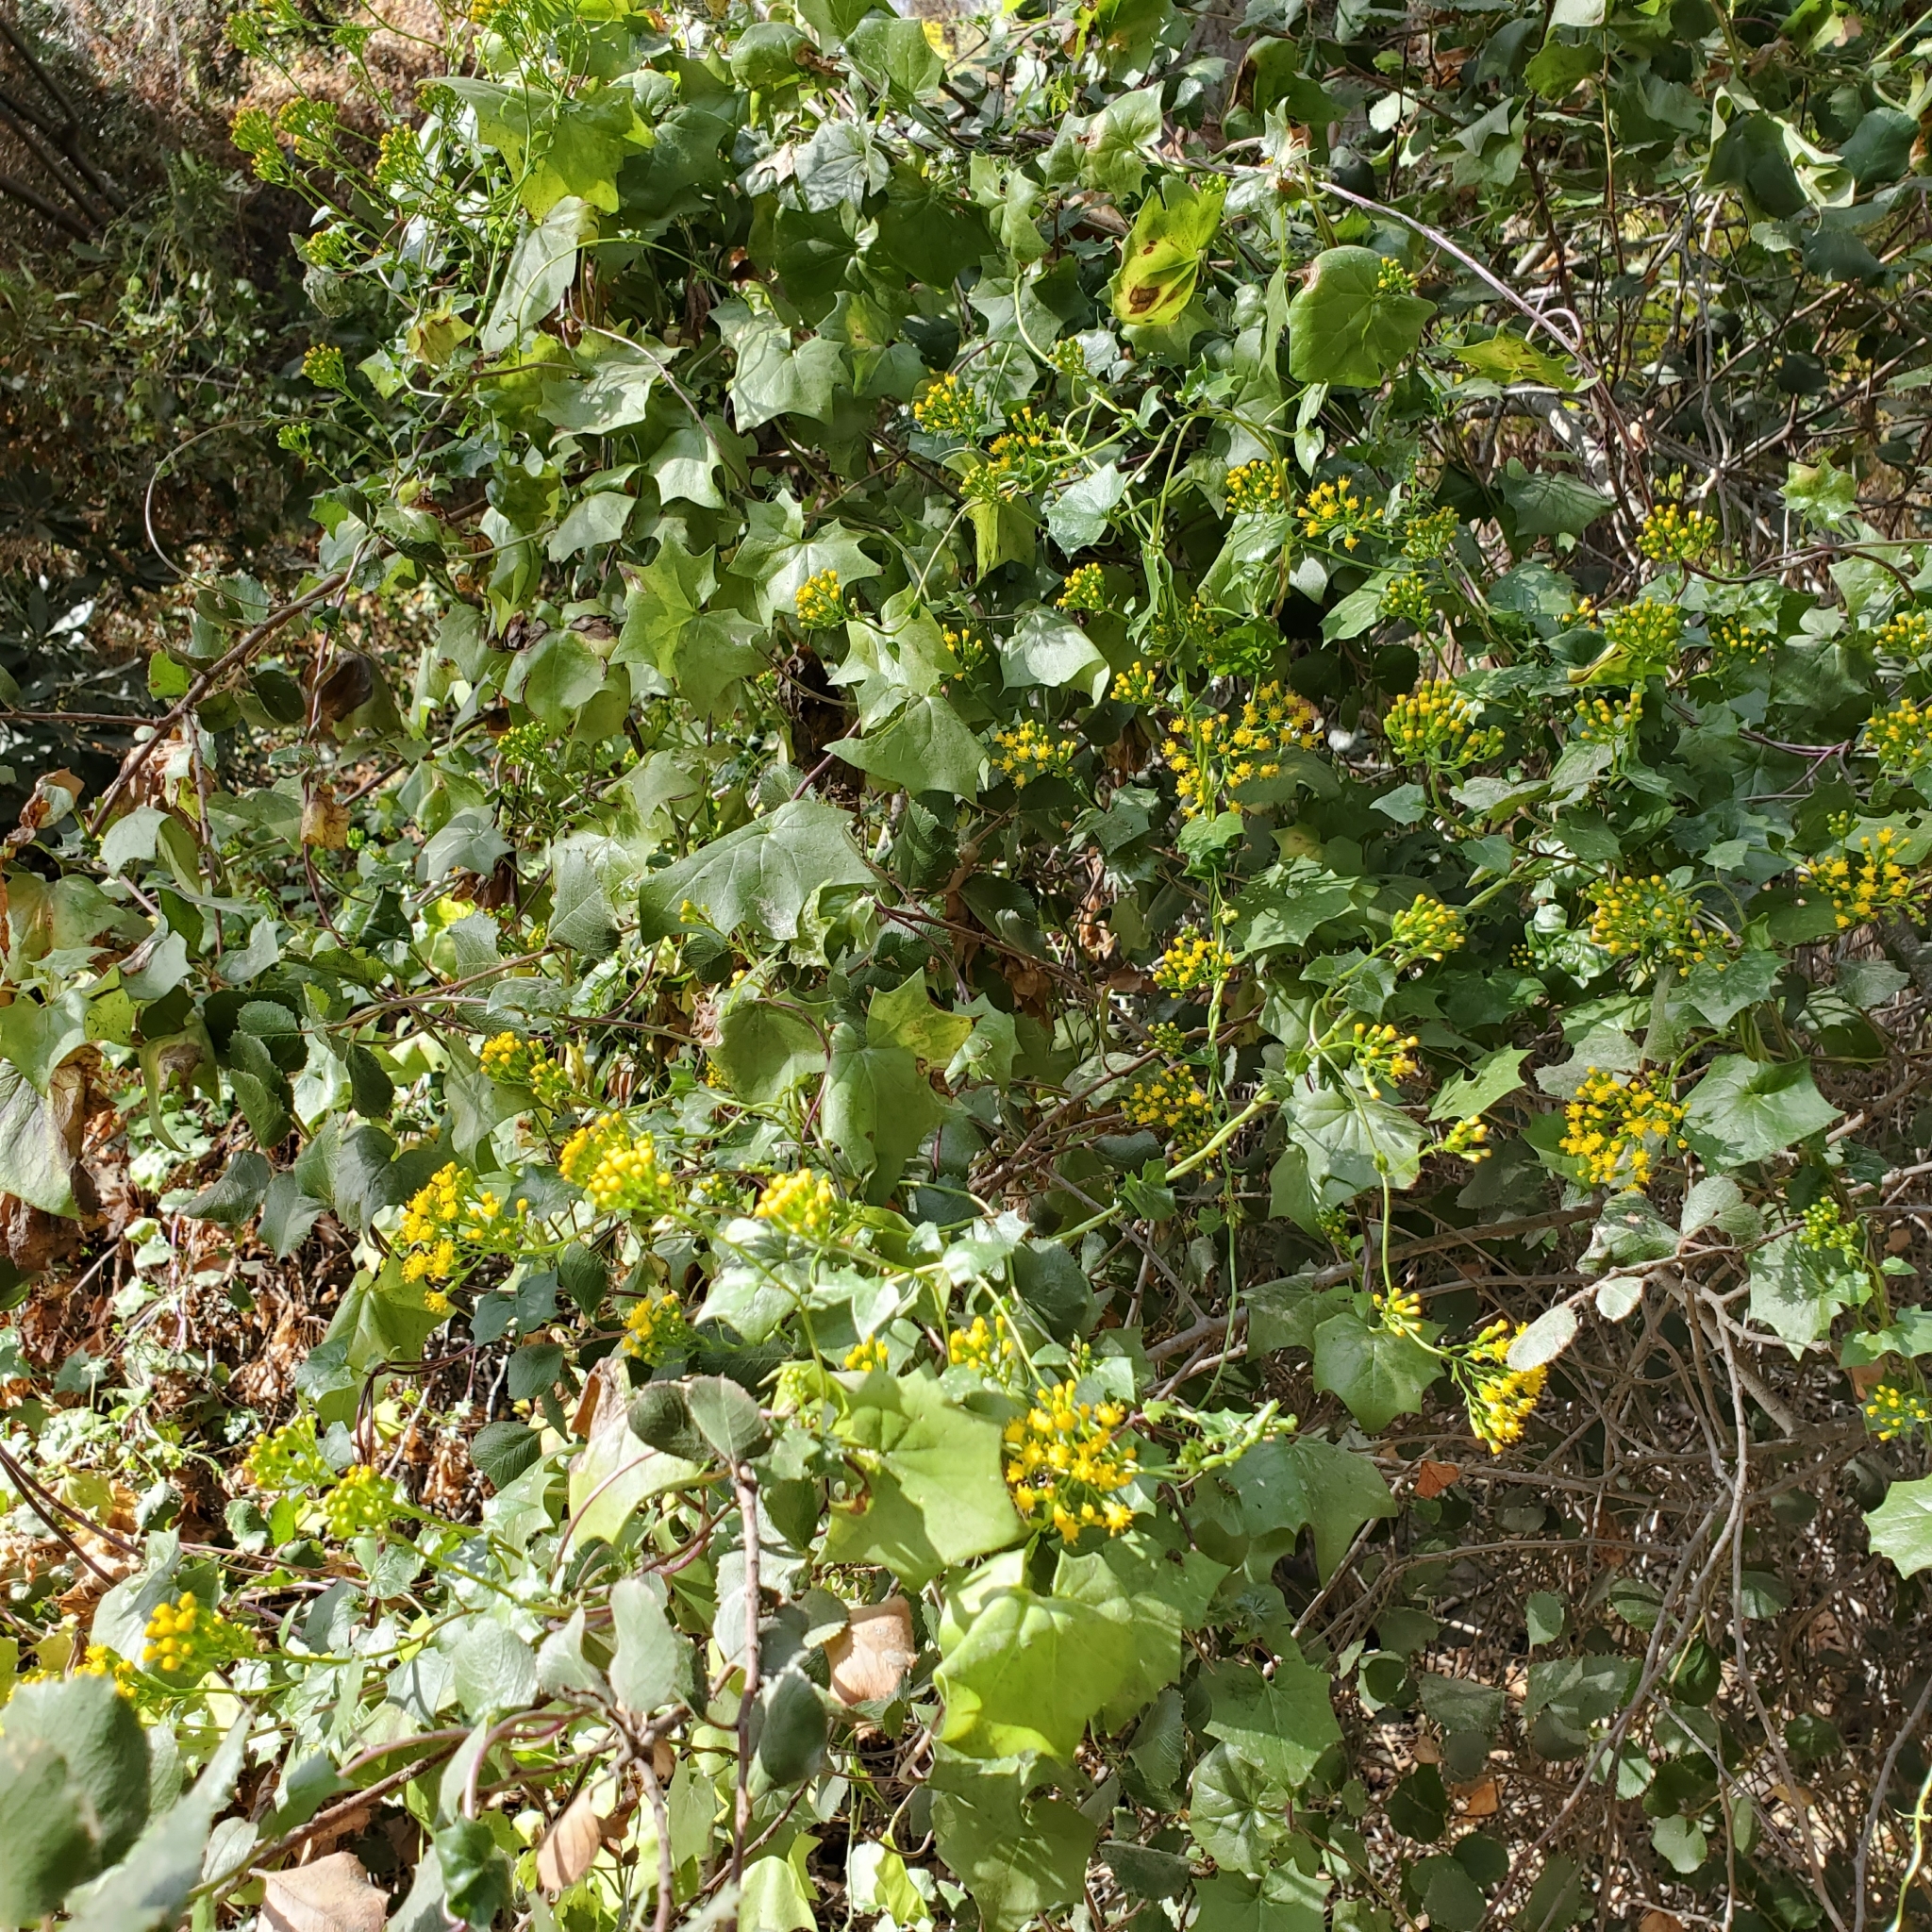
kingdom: Plantae
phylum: Tracheophyta
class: Magnoliopsida
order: Asterales
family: Asteraceae
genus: Delairea
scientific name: Delairea odorata
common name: Cape-ivy
